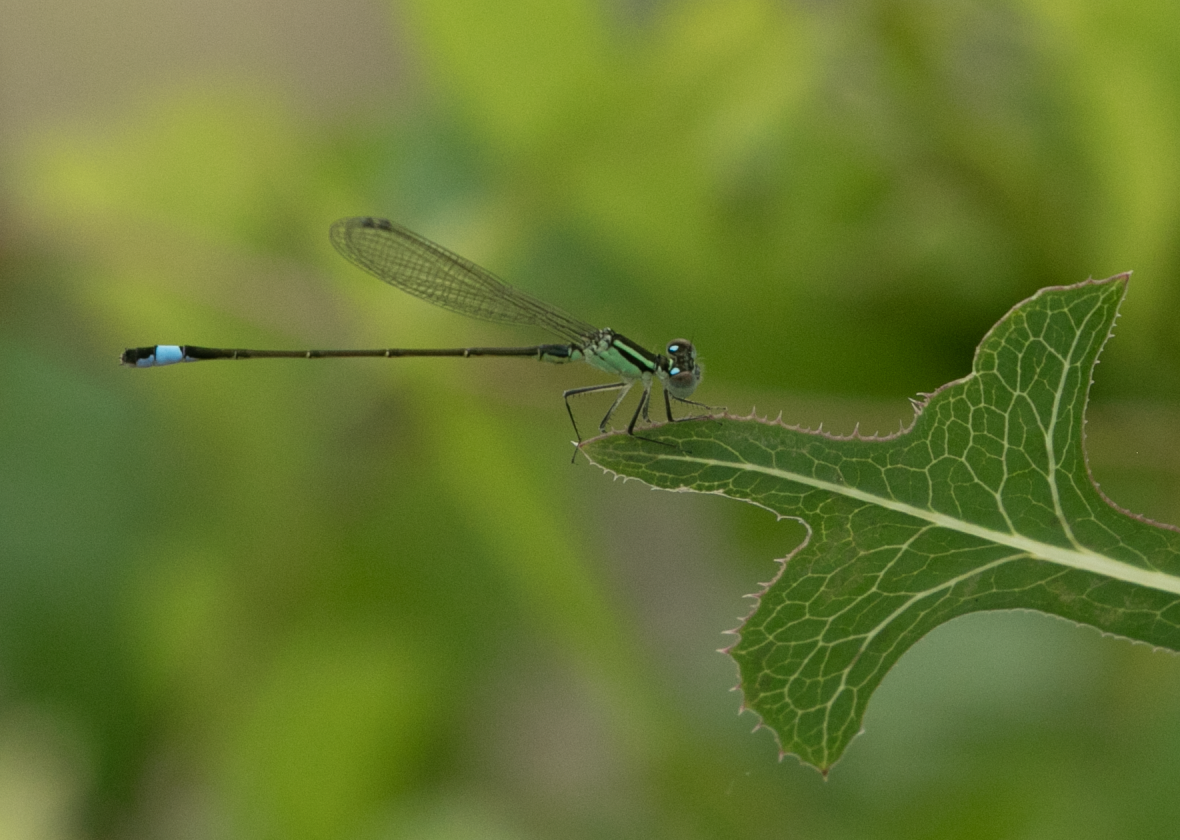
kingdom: Animalia
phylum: Arthropoda
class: Insecta
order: Odonata
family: Coenagrionidae
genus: Ischnura
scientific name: Ischnura elegans
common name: Blue-tailed damselfly
